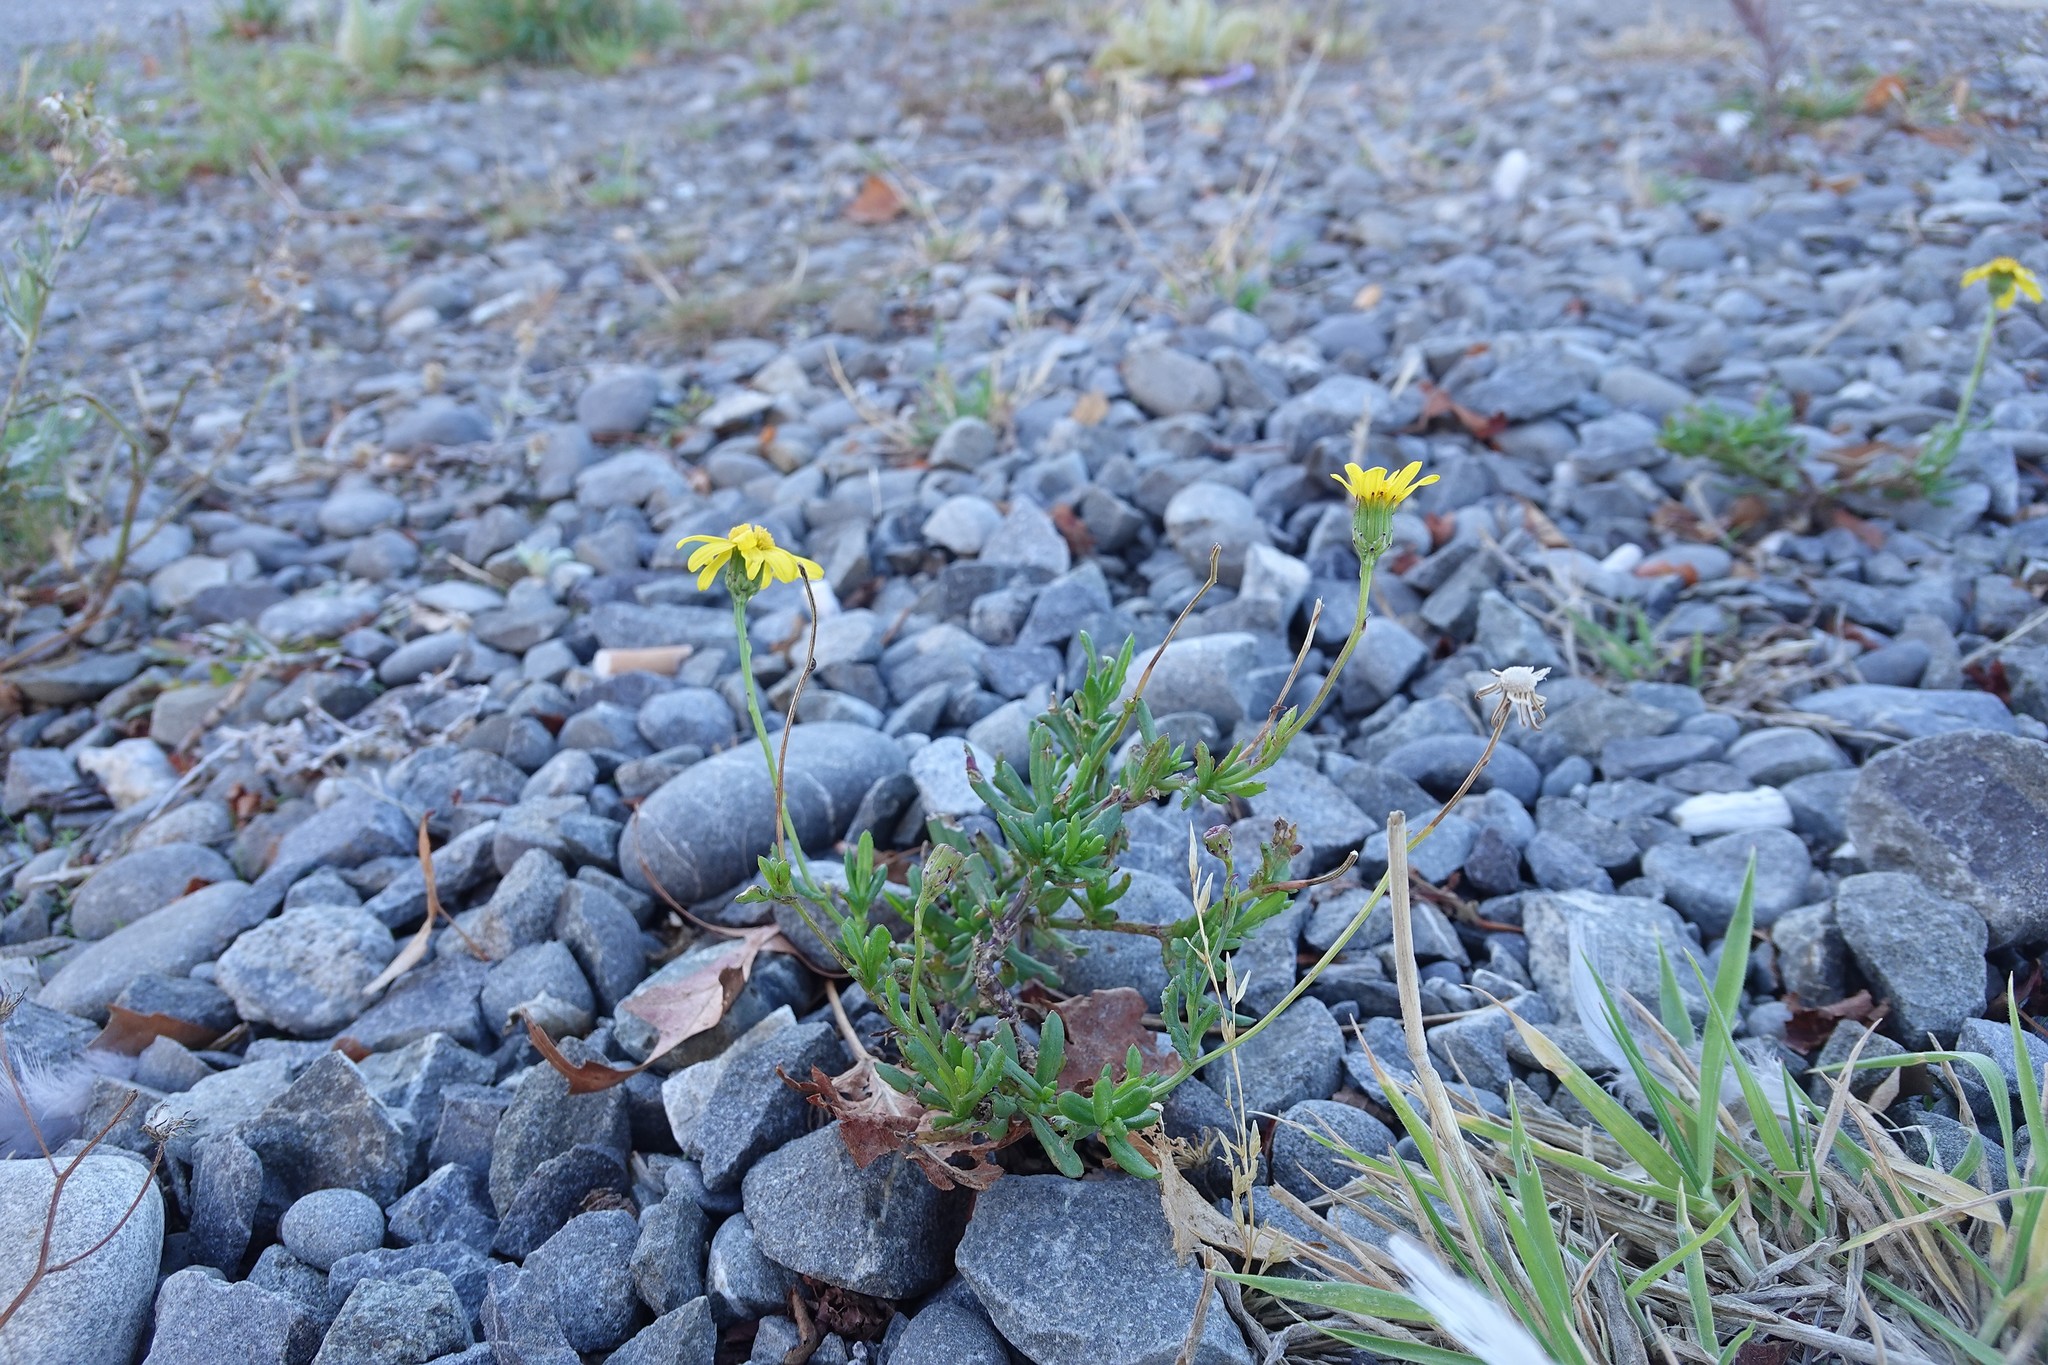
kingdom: Plantae
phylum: Tracheophyta
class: Magnoliopsida
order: Asterales
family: Asteraceae
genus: Senecio
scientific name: Senecio skirrhodon
